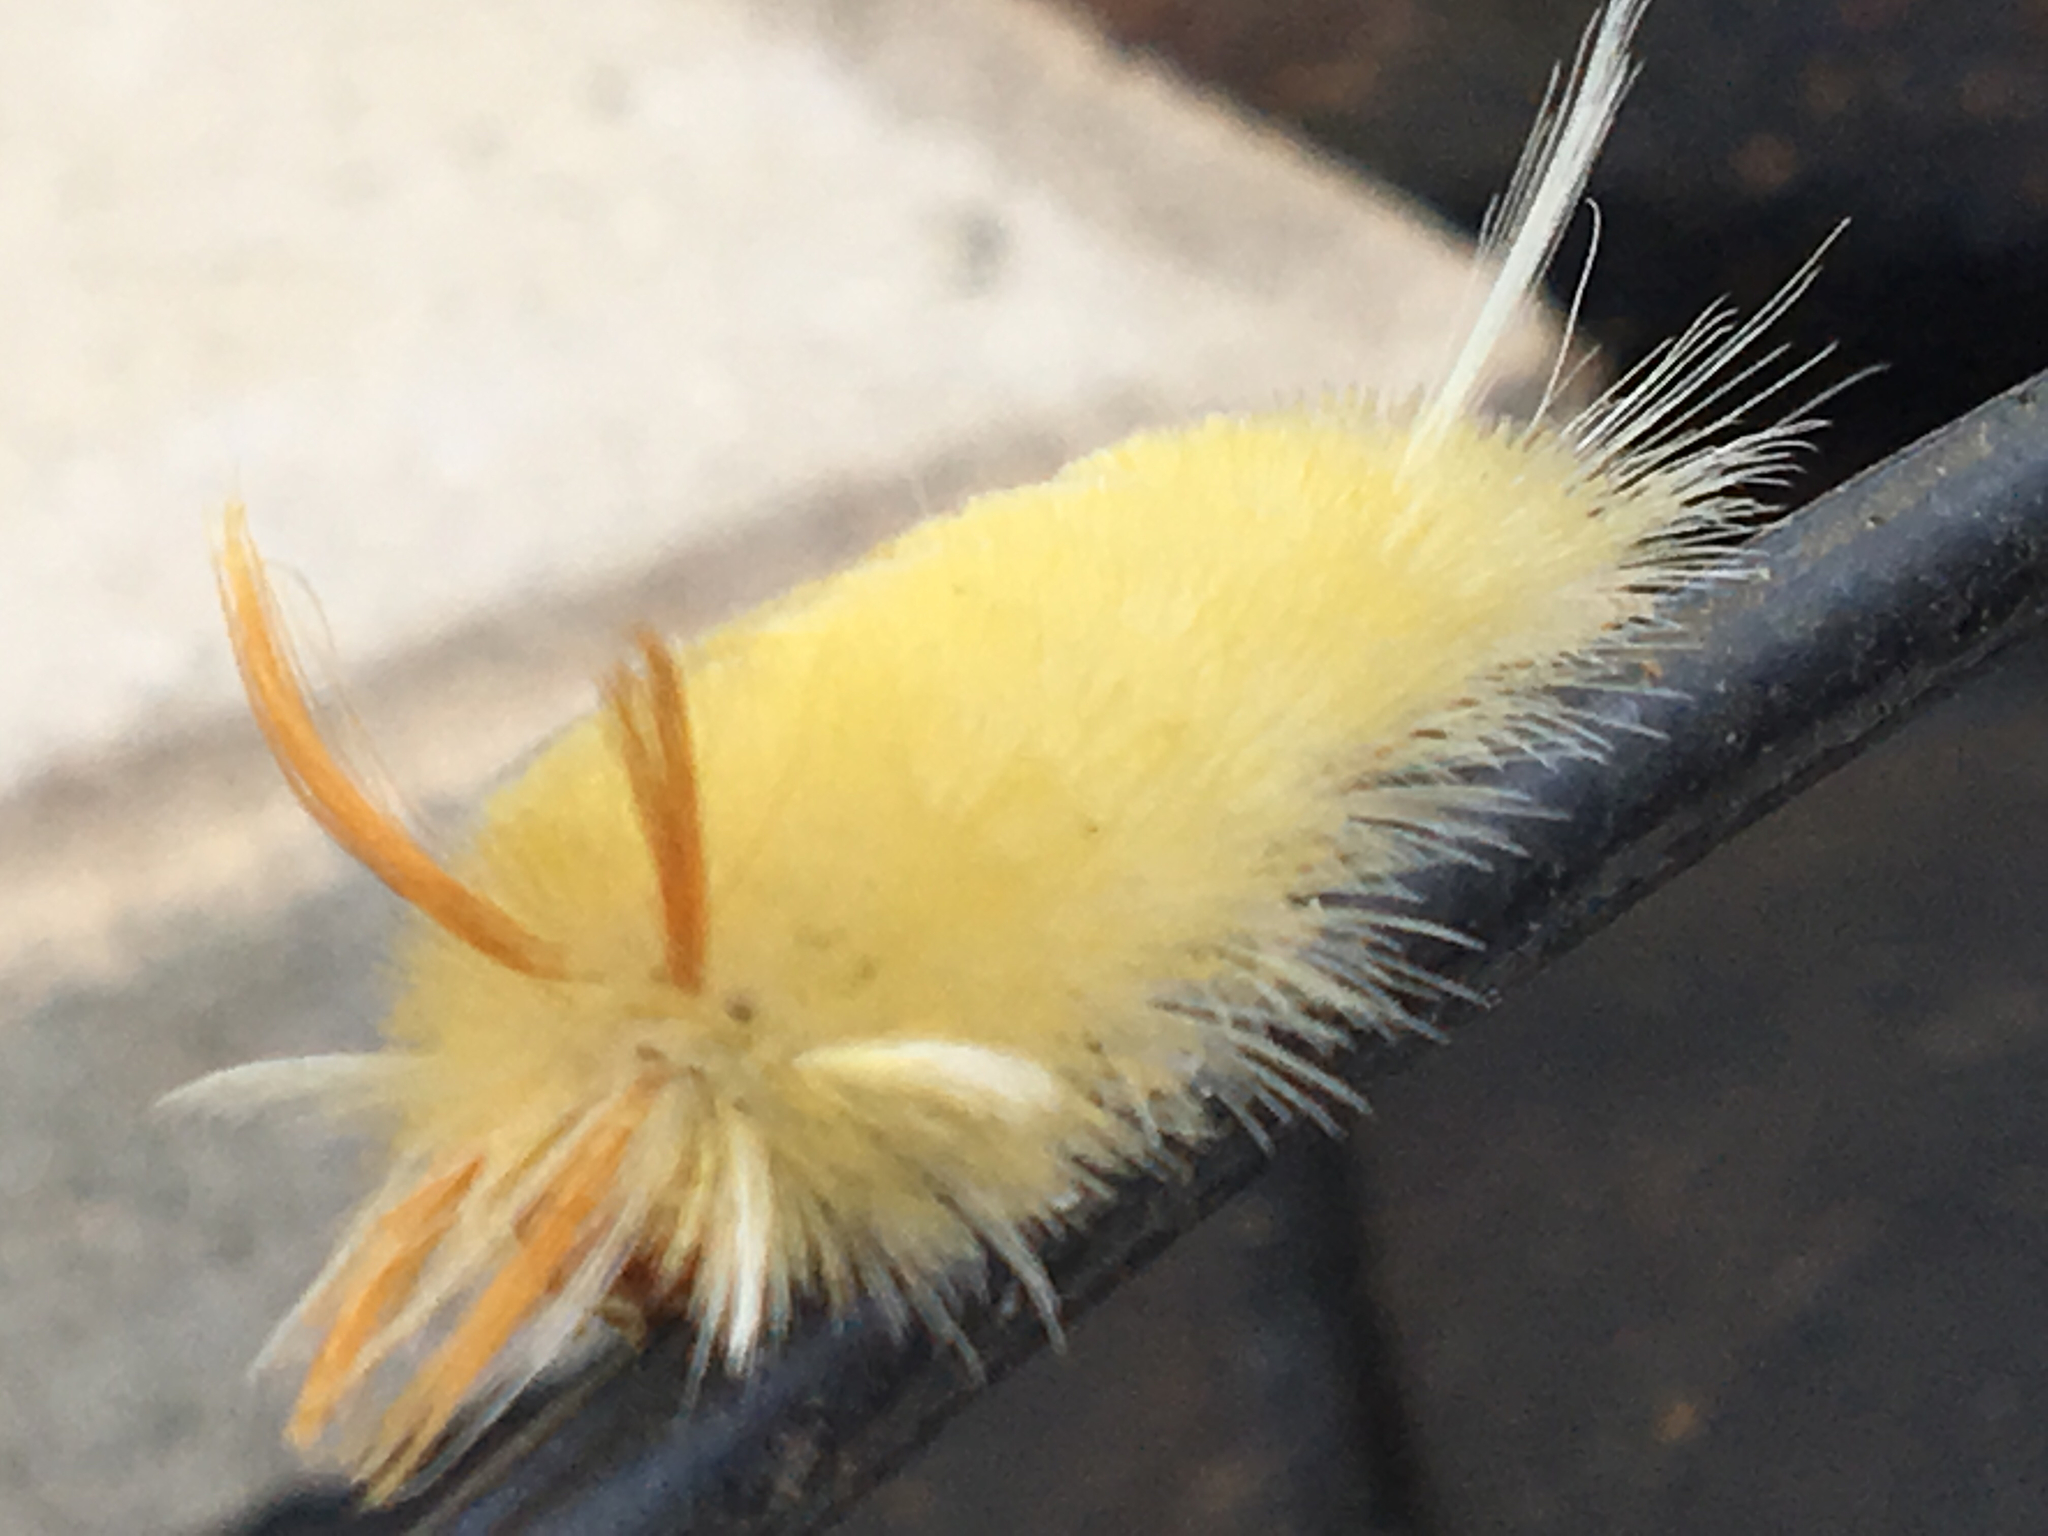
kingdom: Animalia
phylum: Arthropoda
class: Insecta
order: Lepidoptera
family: Erebidae
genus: Halysidota
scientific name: Halysidota harrisii
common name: Sycamore tussock moth
